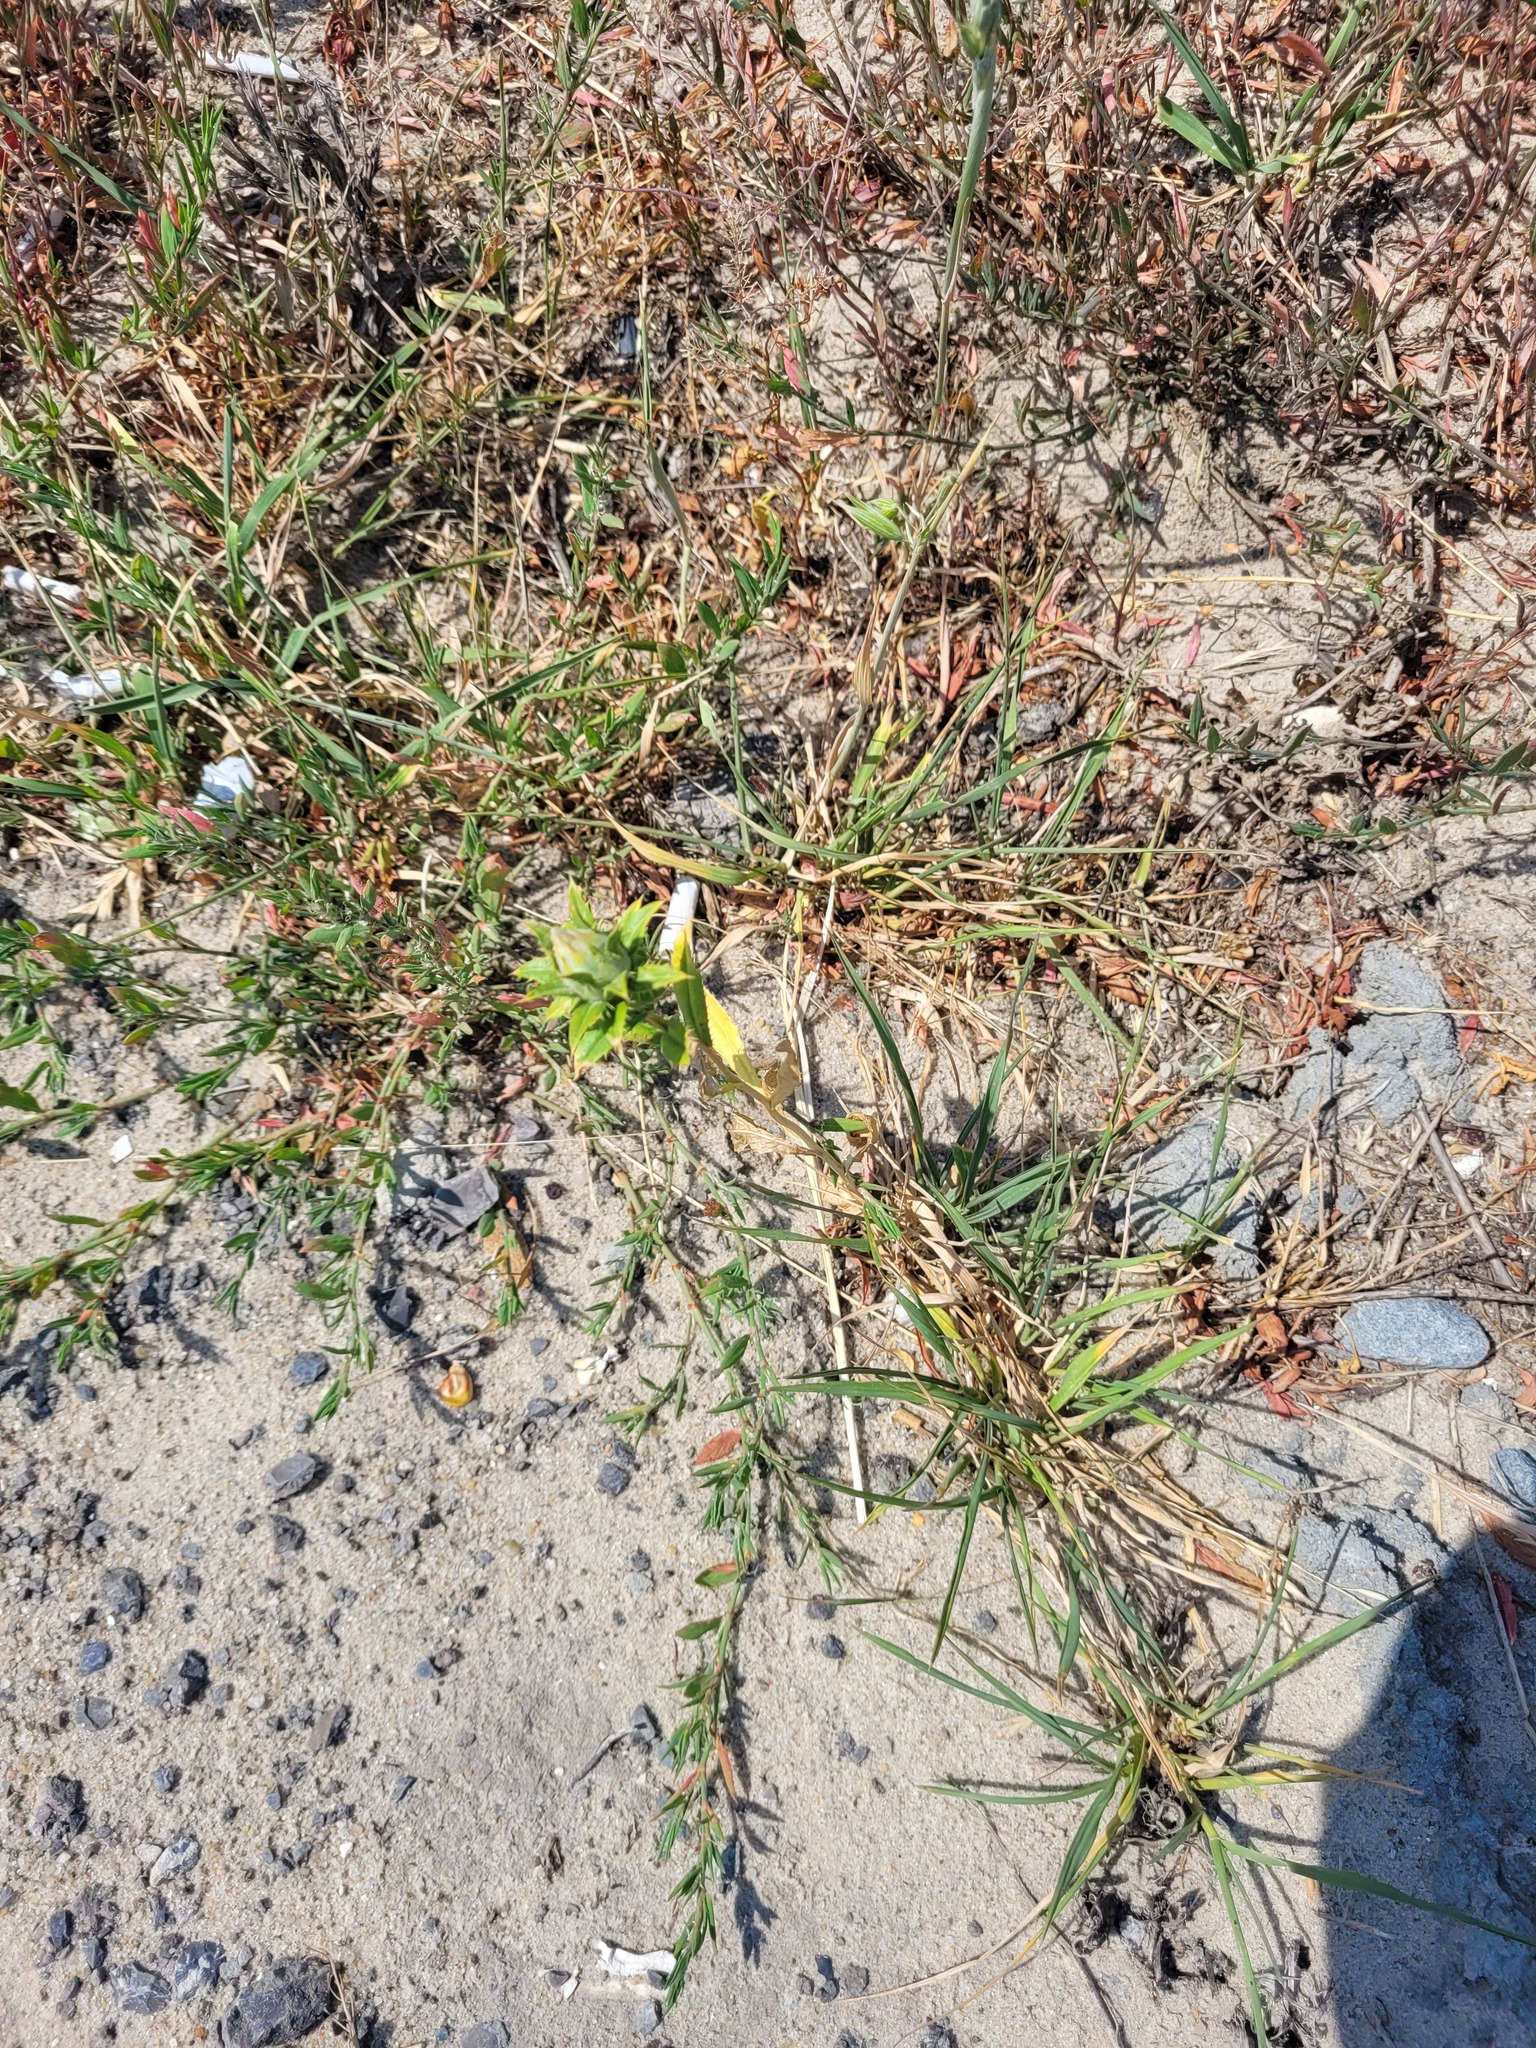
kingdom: Plantae
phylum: Tracheophyta
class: Magnoliopsida
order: Asterales
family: Asteraceae
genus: Carthamus
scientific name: Carthamus tinctorius
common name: Safflower
